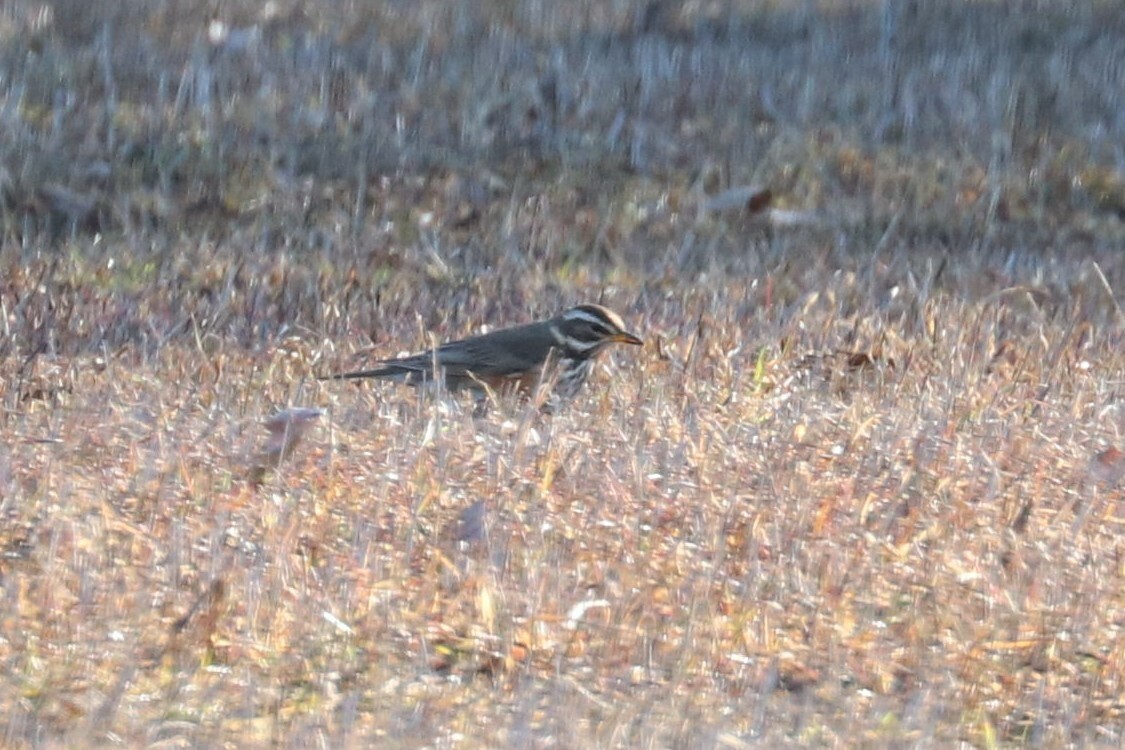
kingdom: Animalia
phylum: Chordata
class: Aves
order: Passeriformes
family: Turdidae
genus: Turdus
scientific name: Turdus iliacus
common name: Redwing
